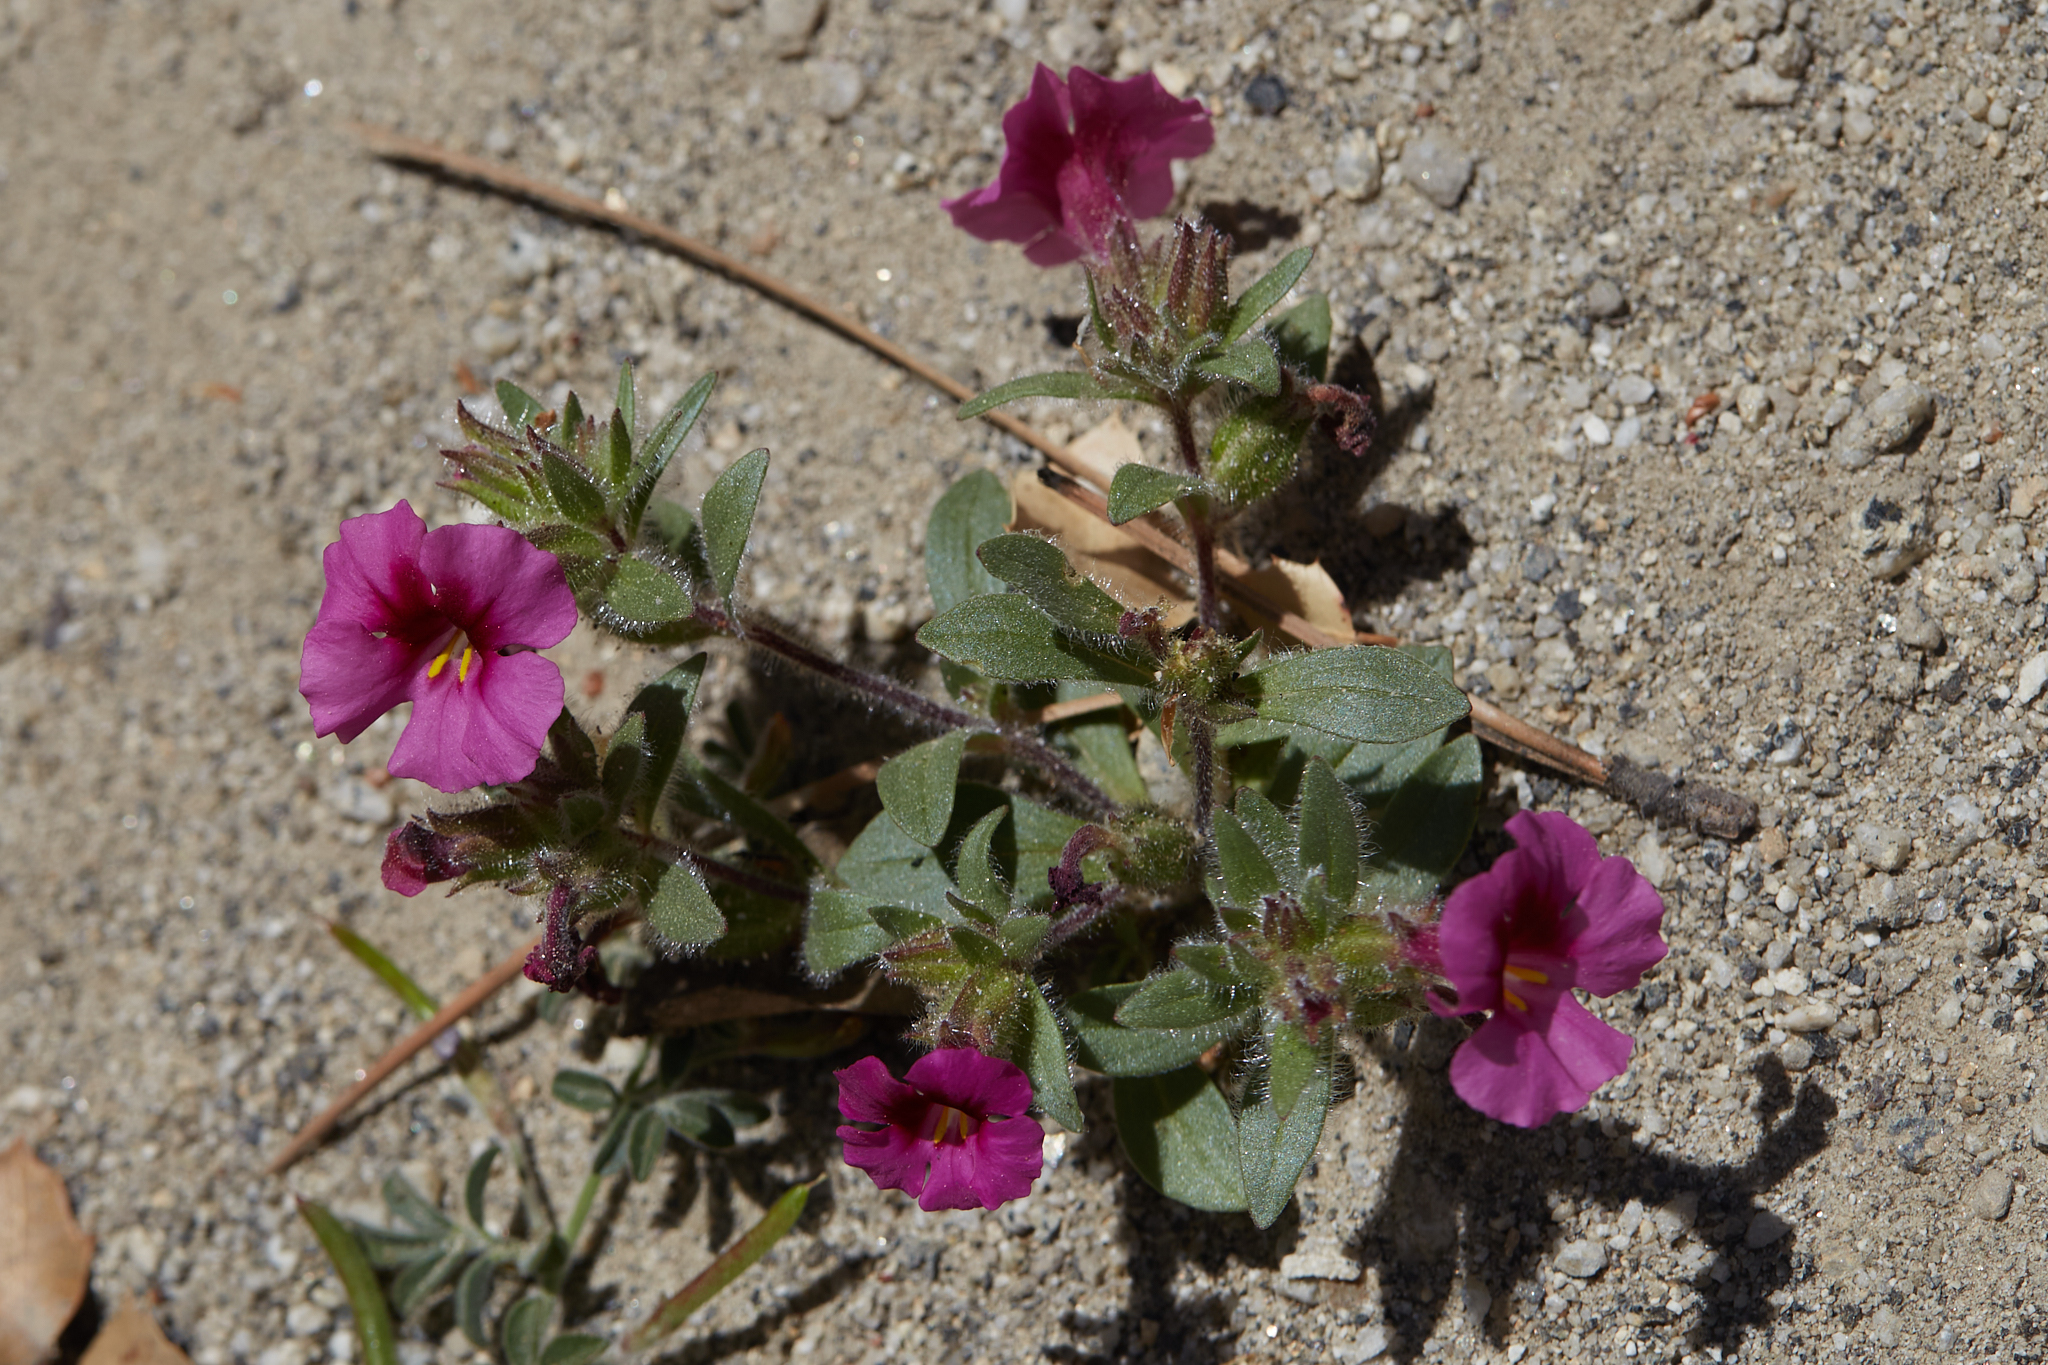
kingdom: Plantae
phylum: Tracheophyta
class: Magnoliopsida
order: Lamiales
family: Phrymaceae
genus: Diplacus
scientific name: Diplacus fremontii
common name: Fremont's monkey-flower
